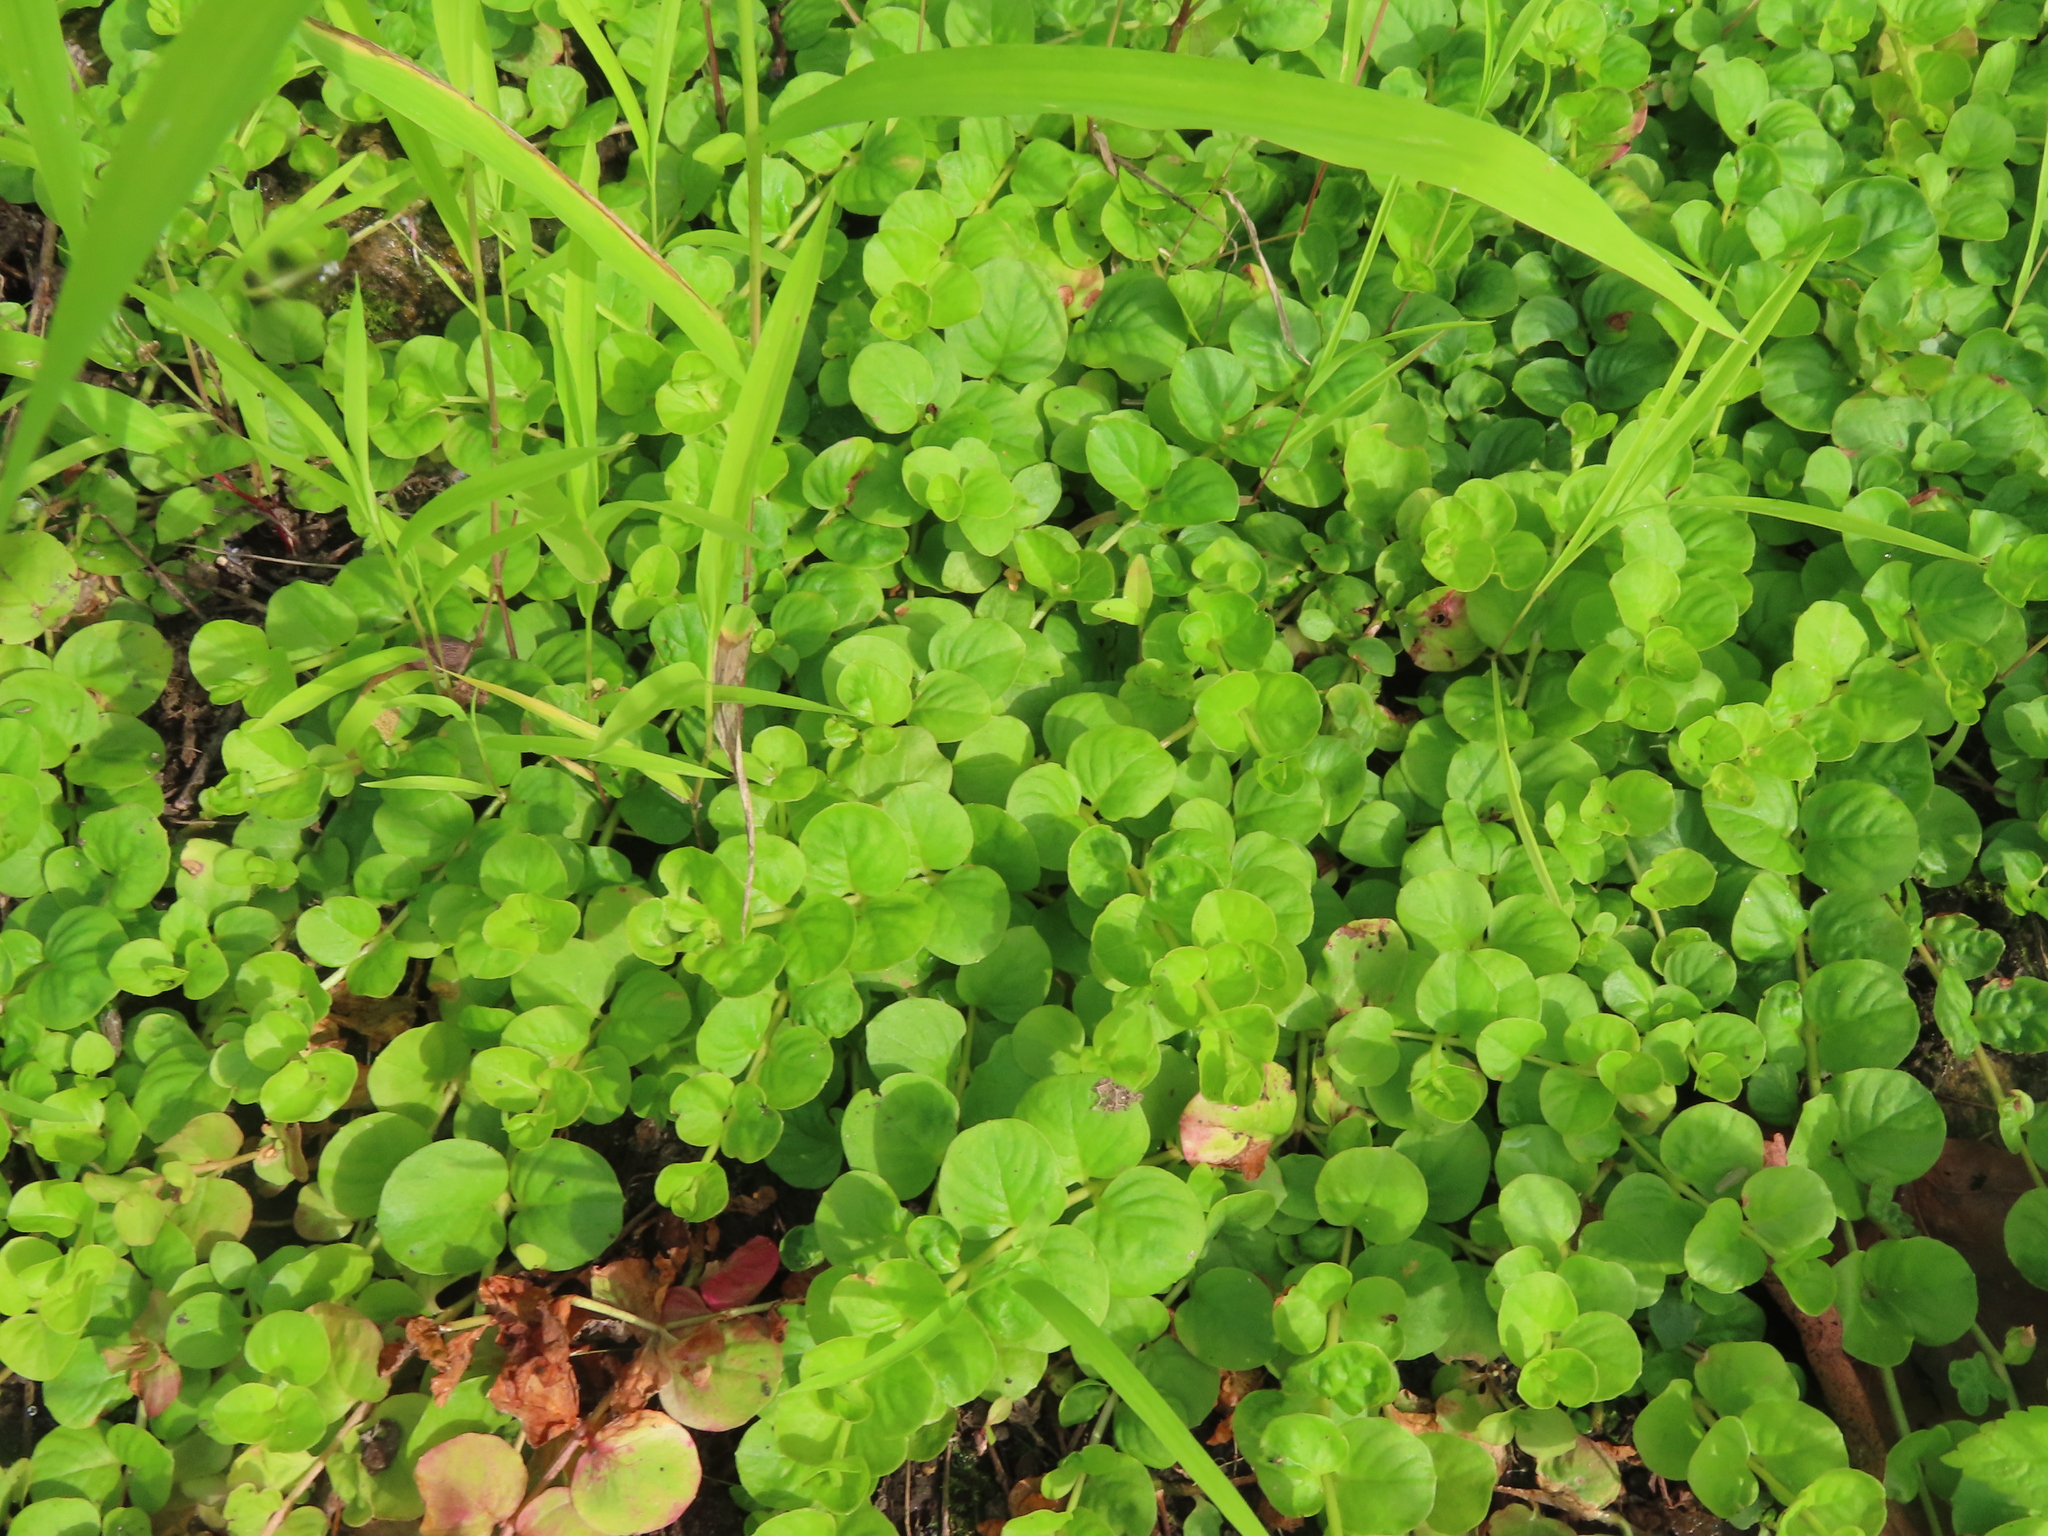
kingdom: Plantae
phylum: Tracheophyta
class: Magnoliopsida
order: Ericales
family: Primulaceae
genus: Lysimachia
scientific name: Lysimachia nummularia
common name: Moneywort
